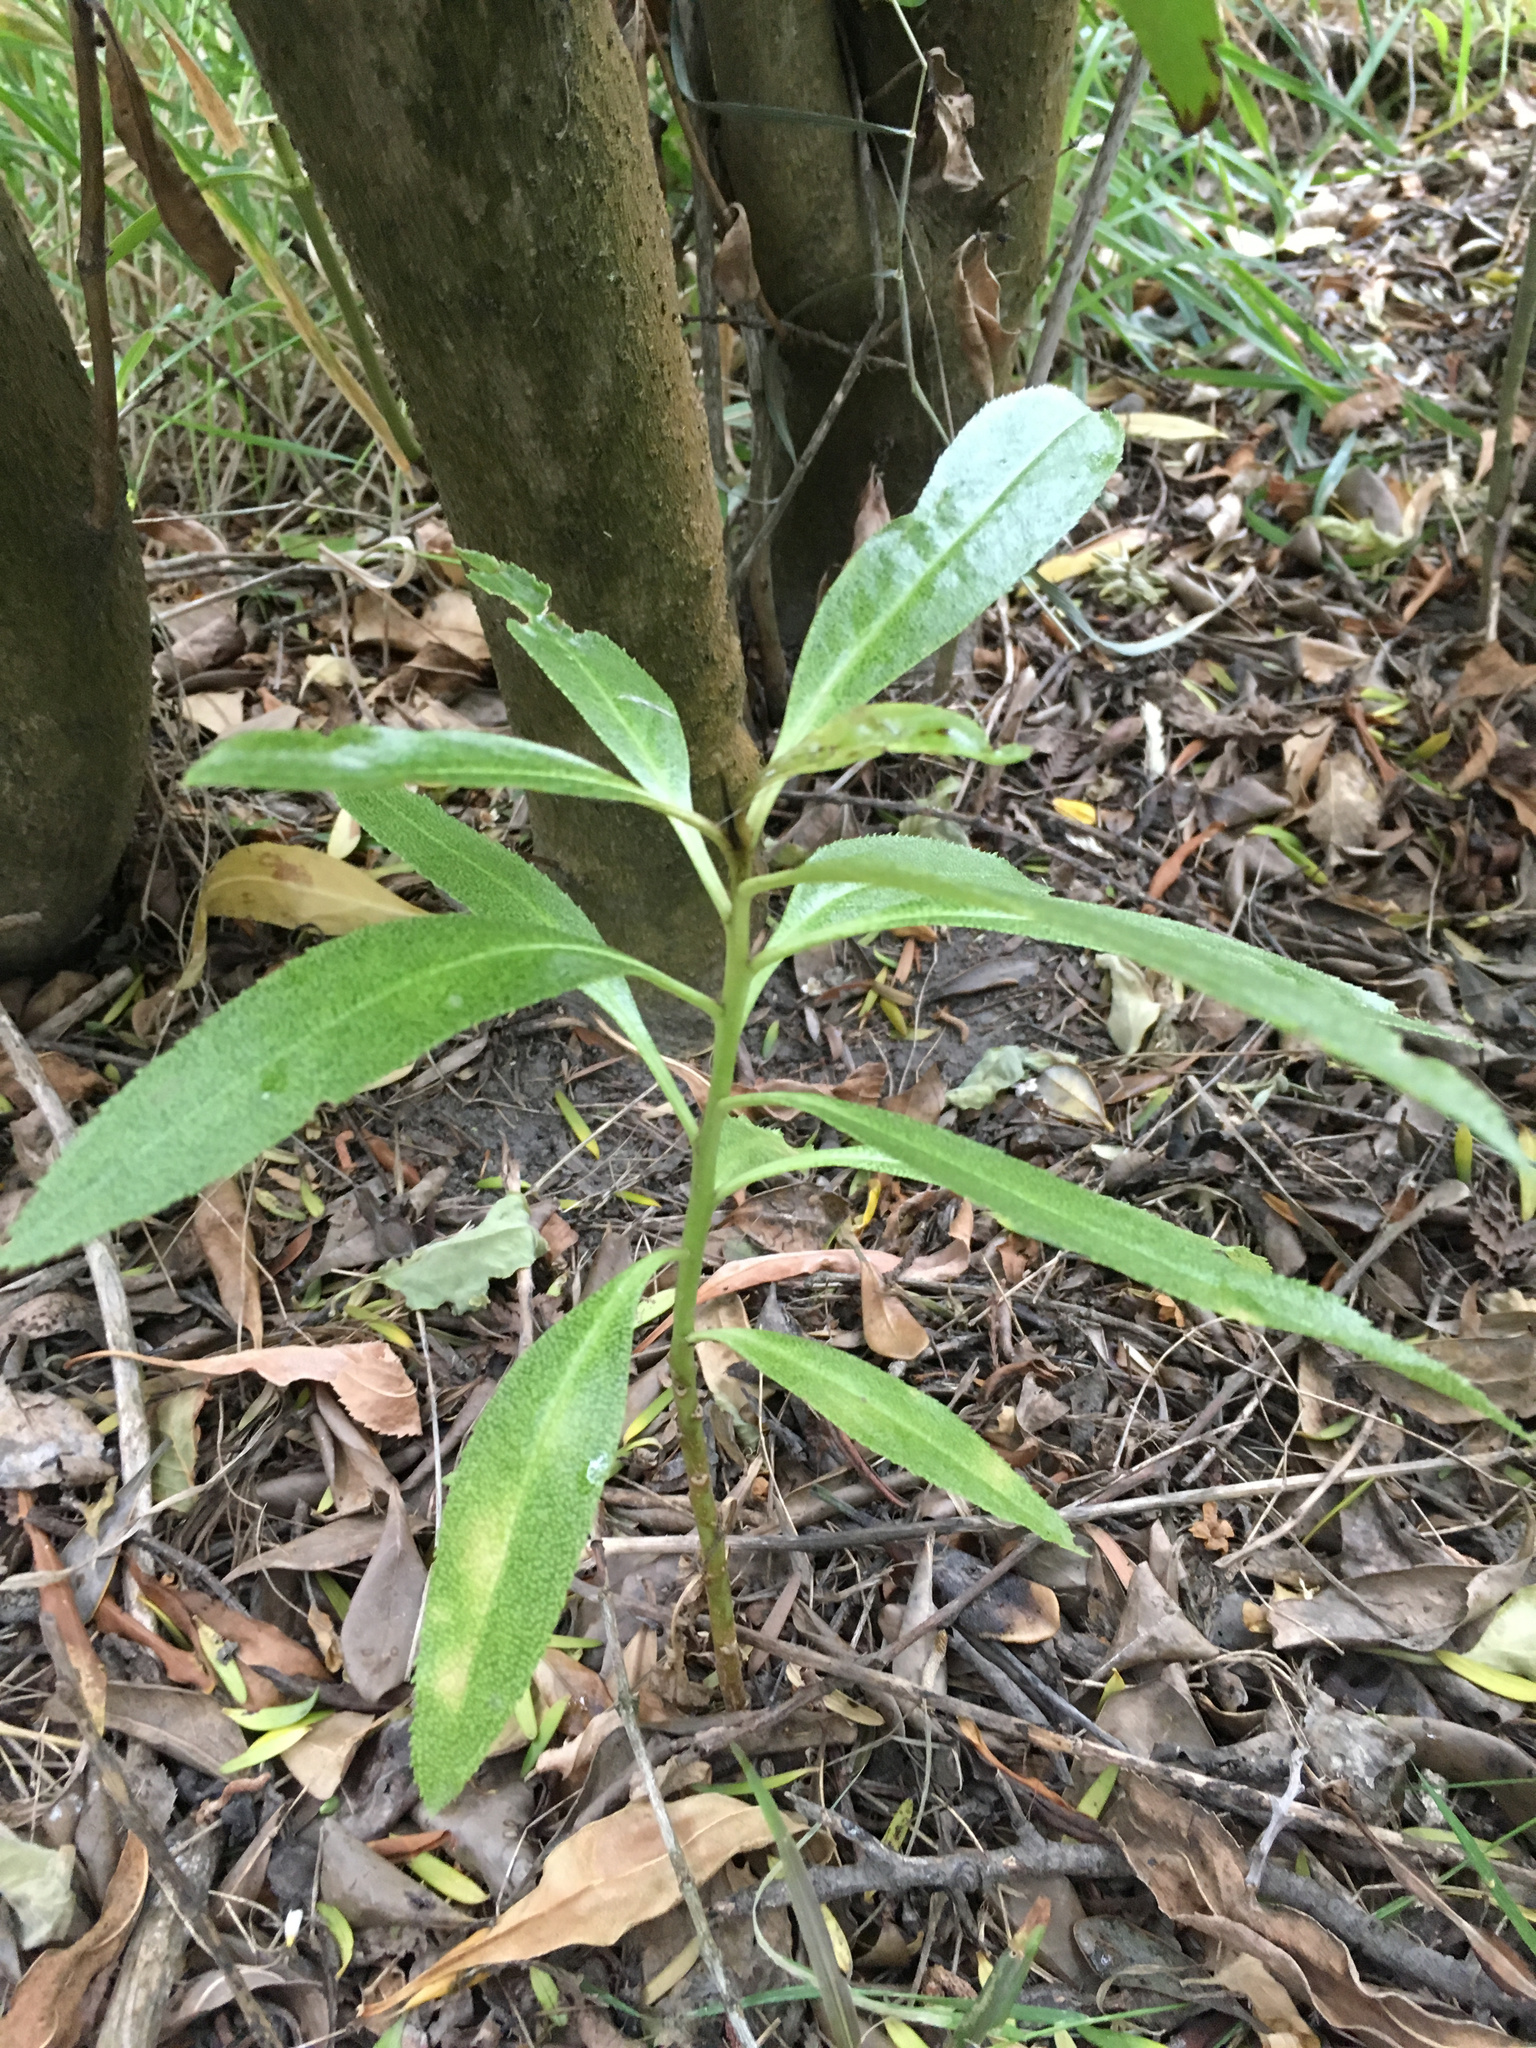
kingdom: Plantae
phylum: Tracheophyta
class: Magnoliopsida
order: Lamiales
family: Scrophulariaceae
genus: Myoporum
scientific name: Myoporum laetum
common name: Ngaio tree
